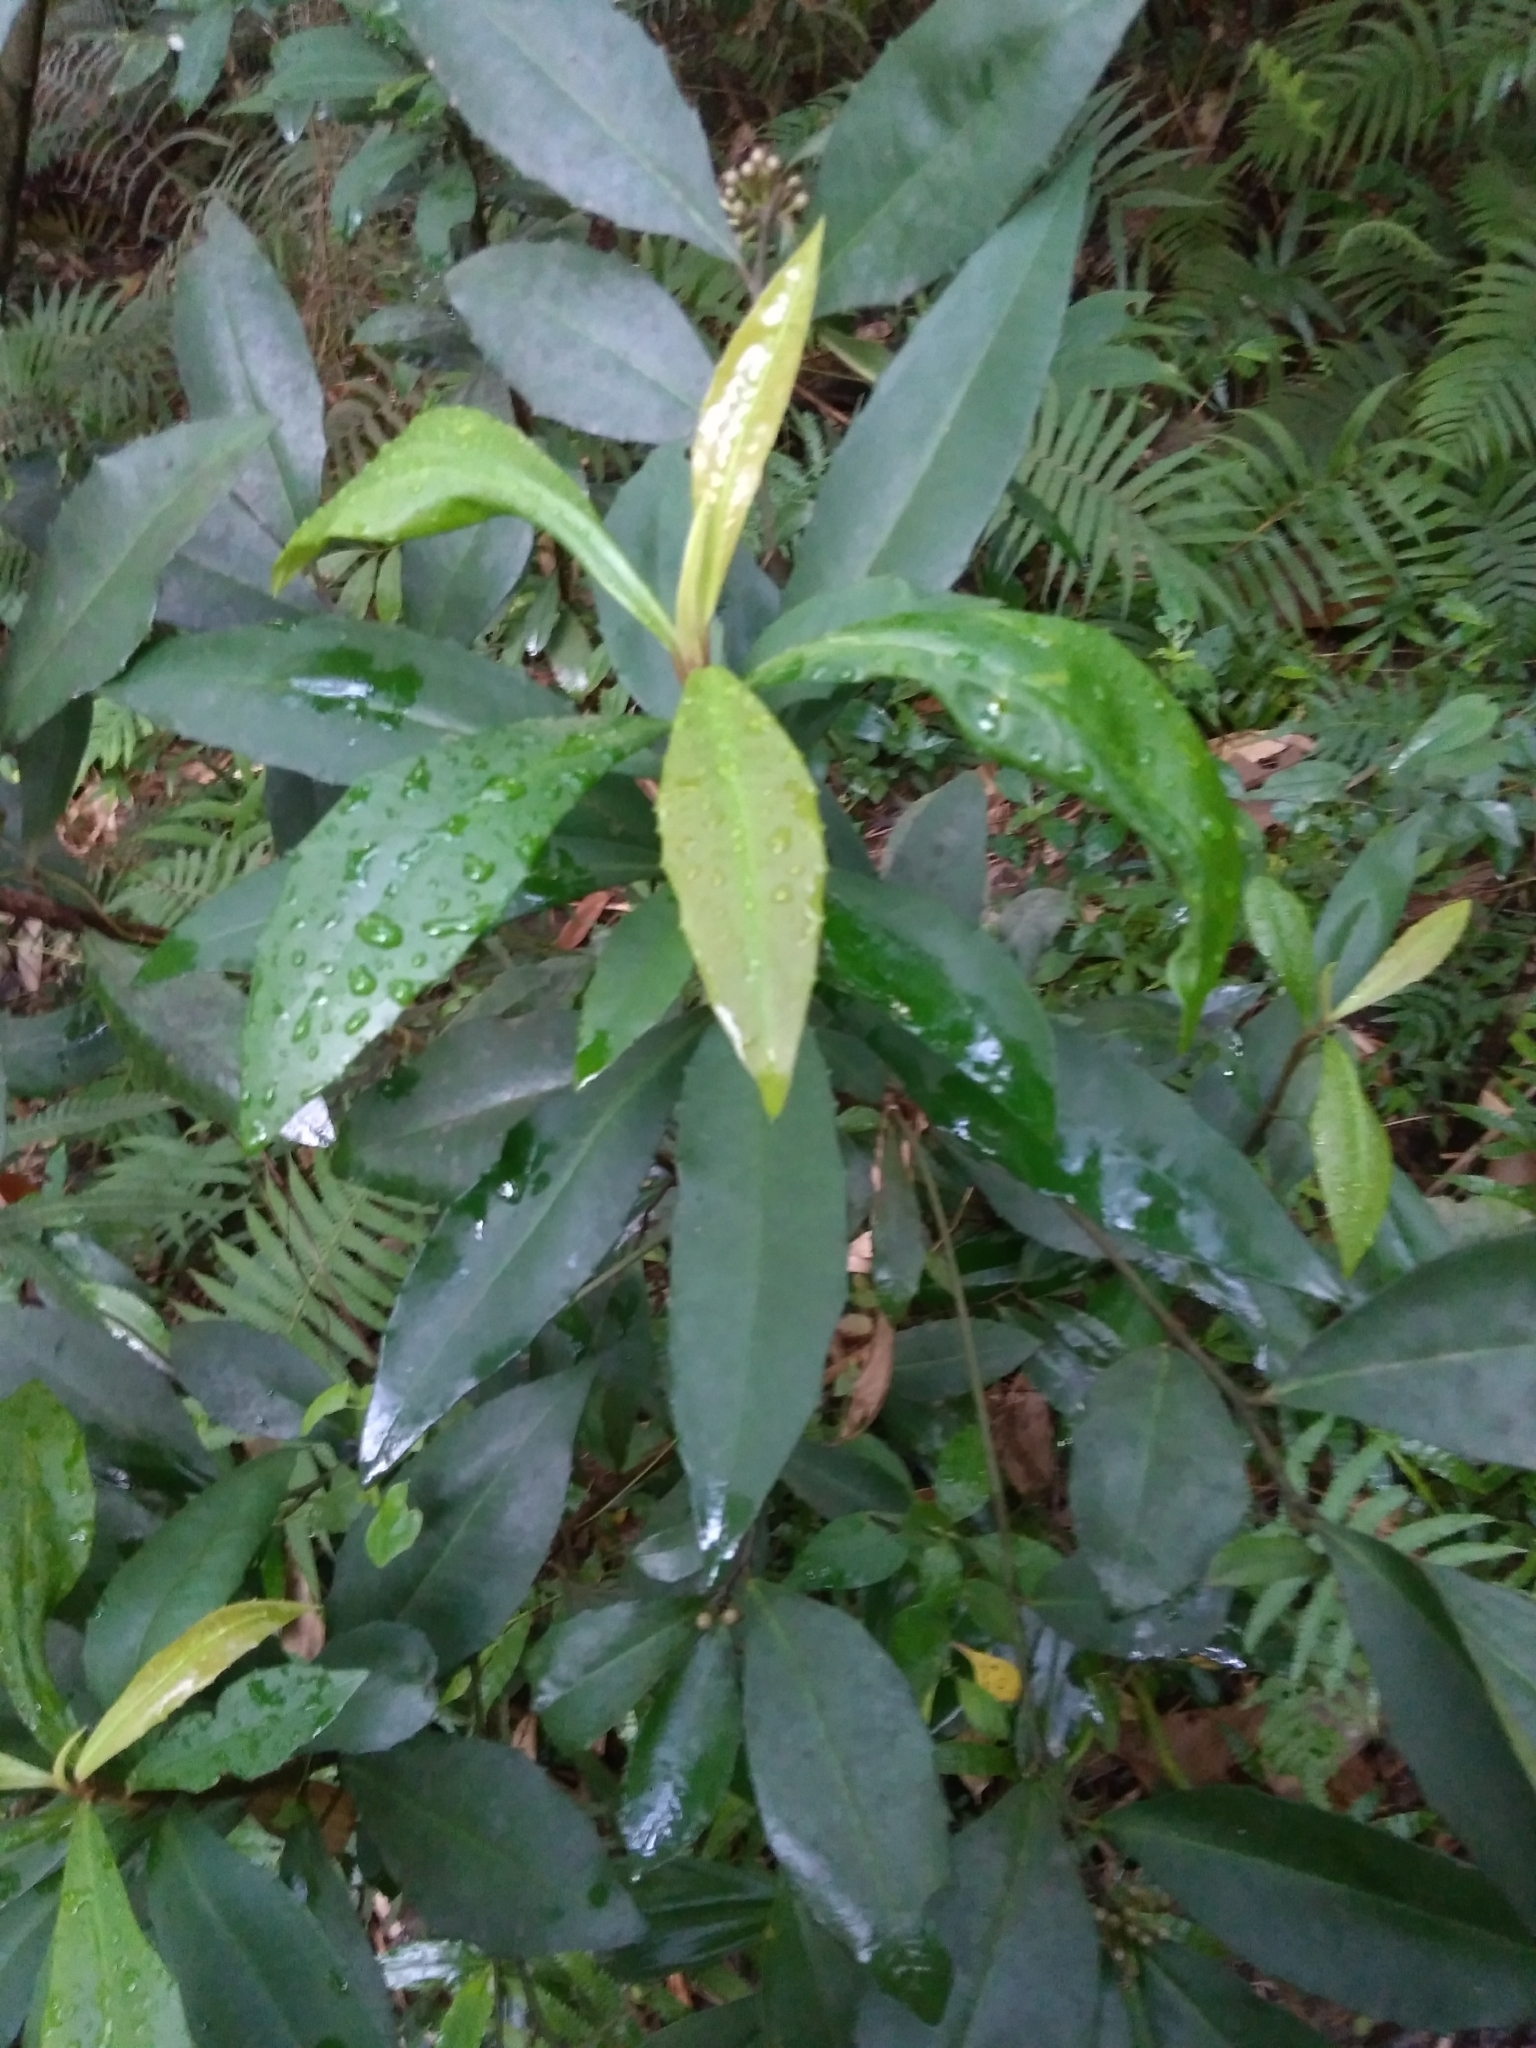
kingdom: Plantae
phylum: Tracheophyta
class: Magnoliopsida
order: Ericales
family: Primulaceae
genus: Ardisia
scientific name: Ardisia cornudentata
